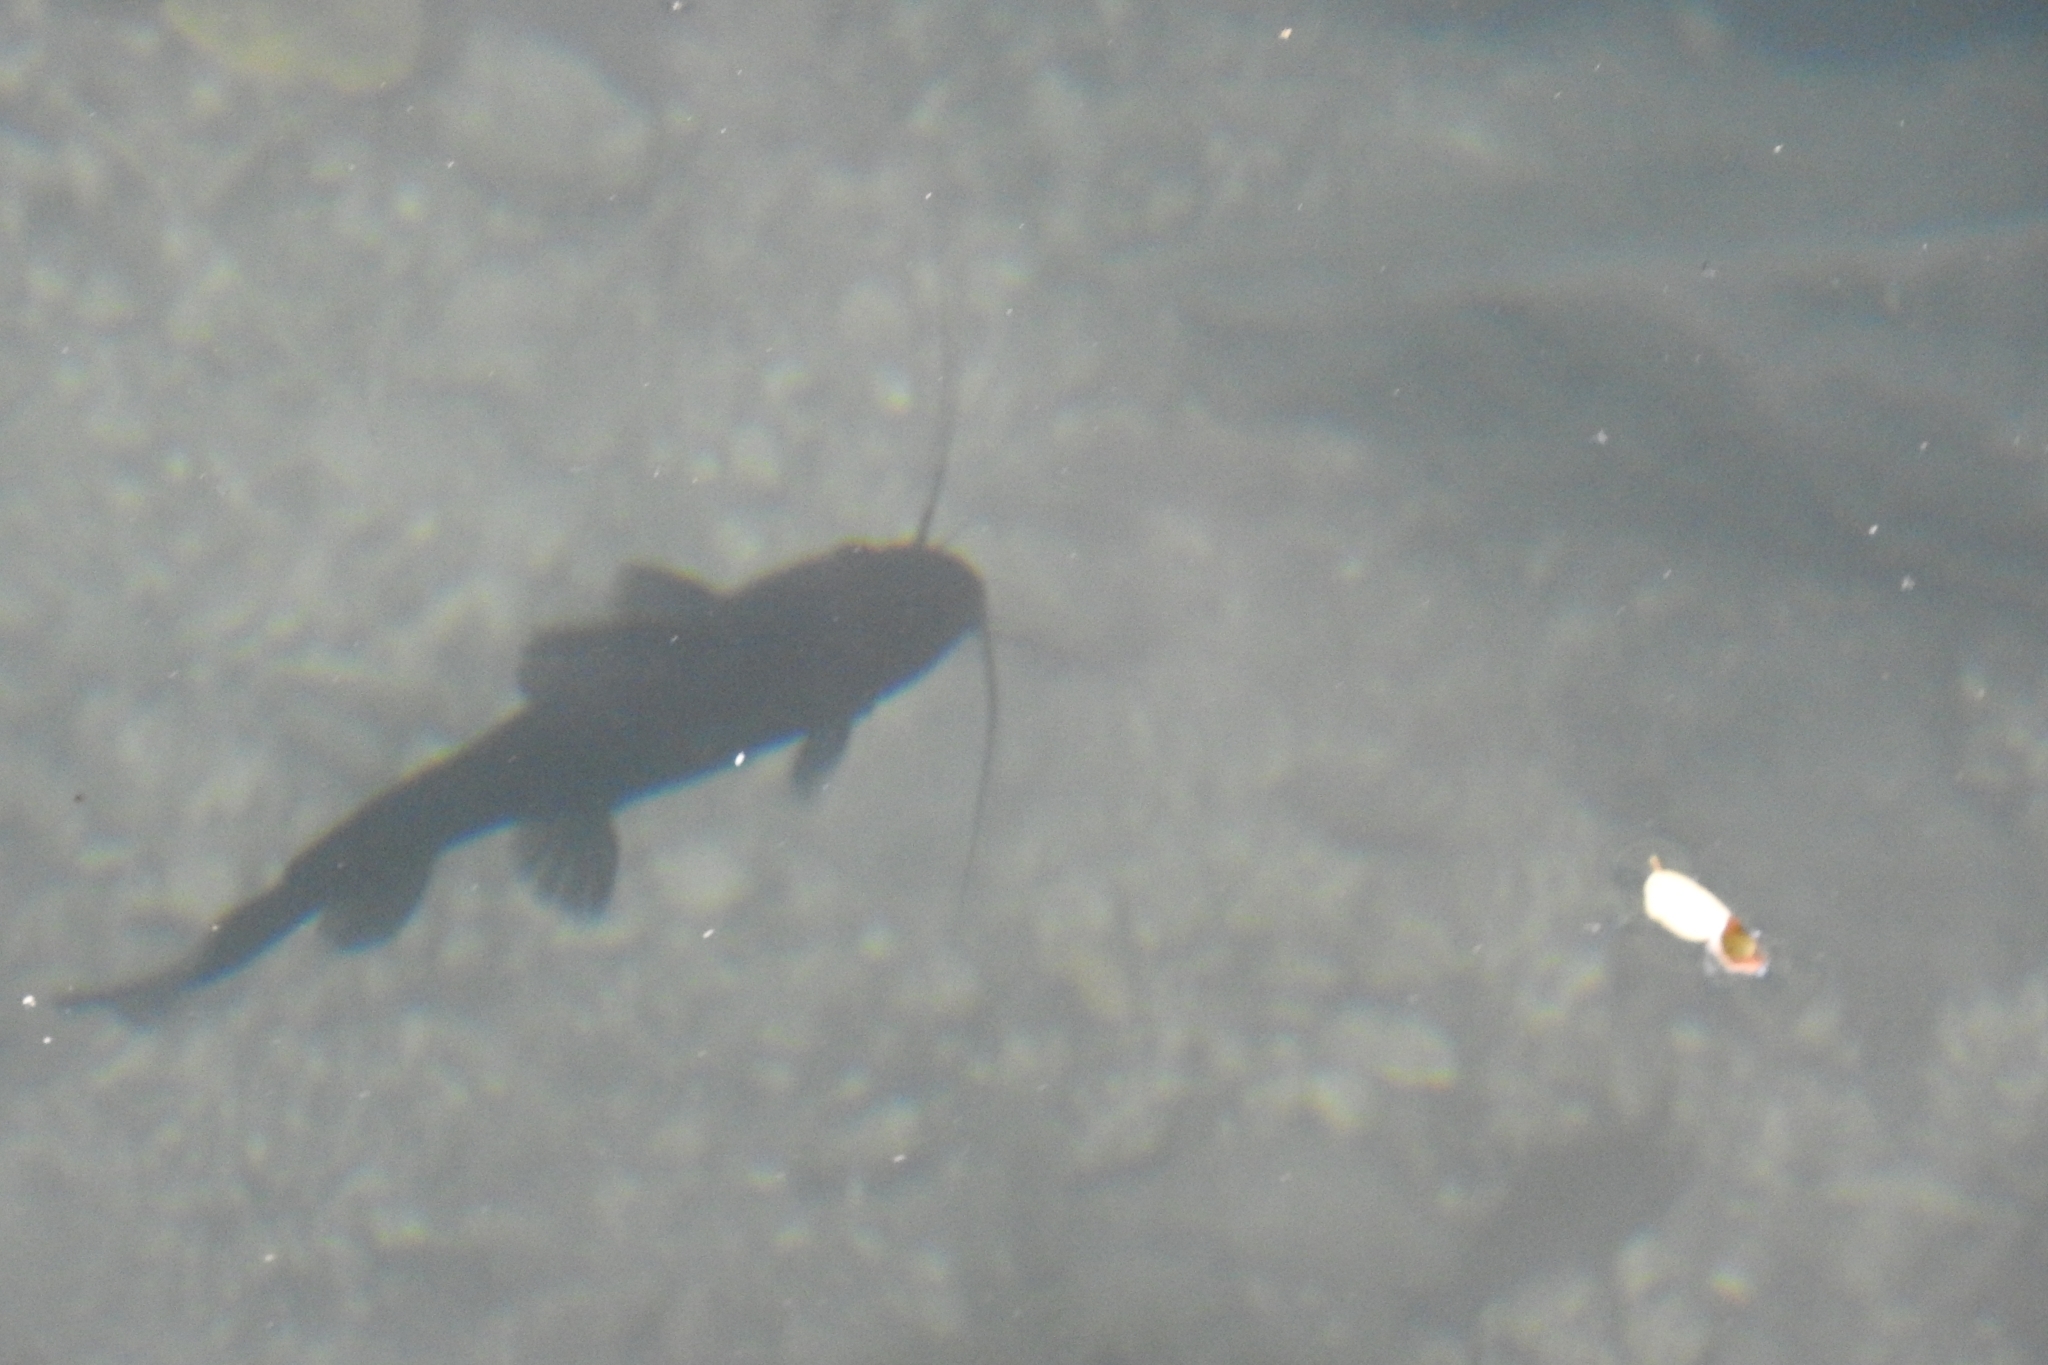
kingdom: Animalia
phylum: Chordata
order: Siluriformes
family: Heptapteridae
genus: Rhamdia
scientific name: Rhamdia guatemalensis
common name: Pale catfish
